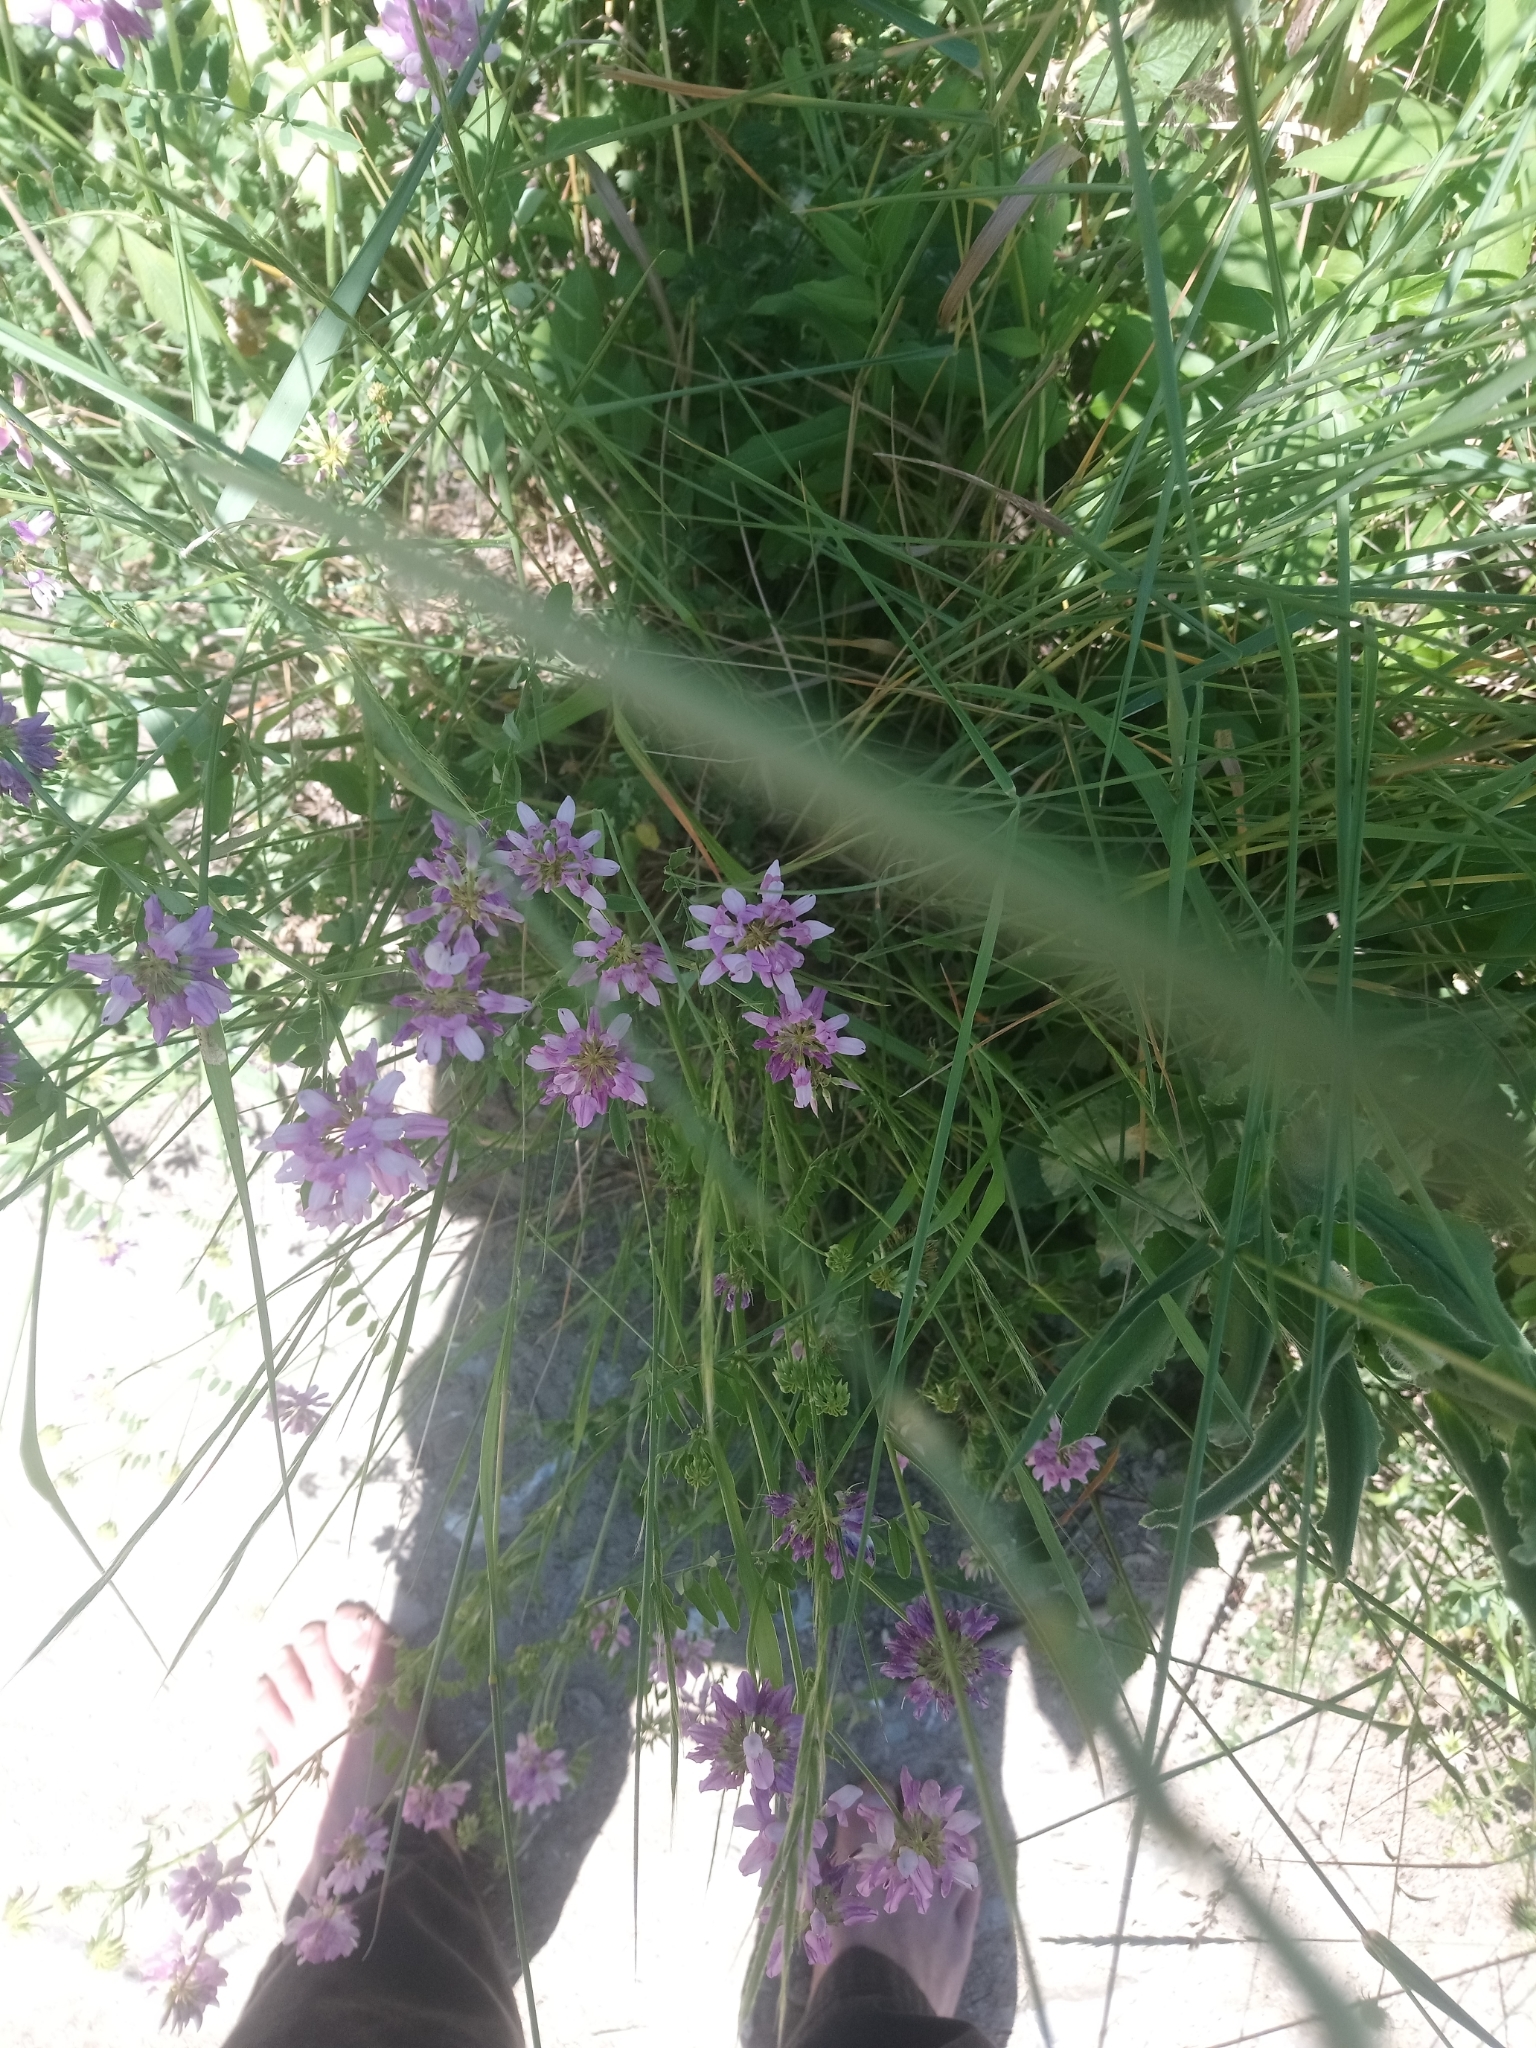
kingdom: Plantae
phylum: Tracheophyta
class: Magnoliopsida
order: Fabales
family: Fabaceae
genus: Coronilla
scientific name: Coronilla varia
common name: Crownvetch
